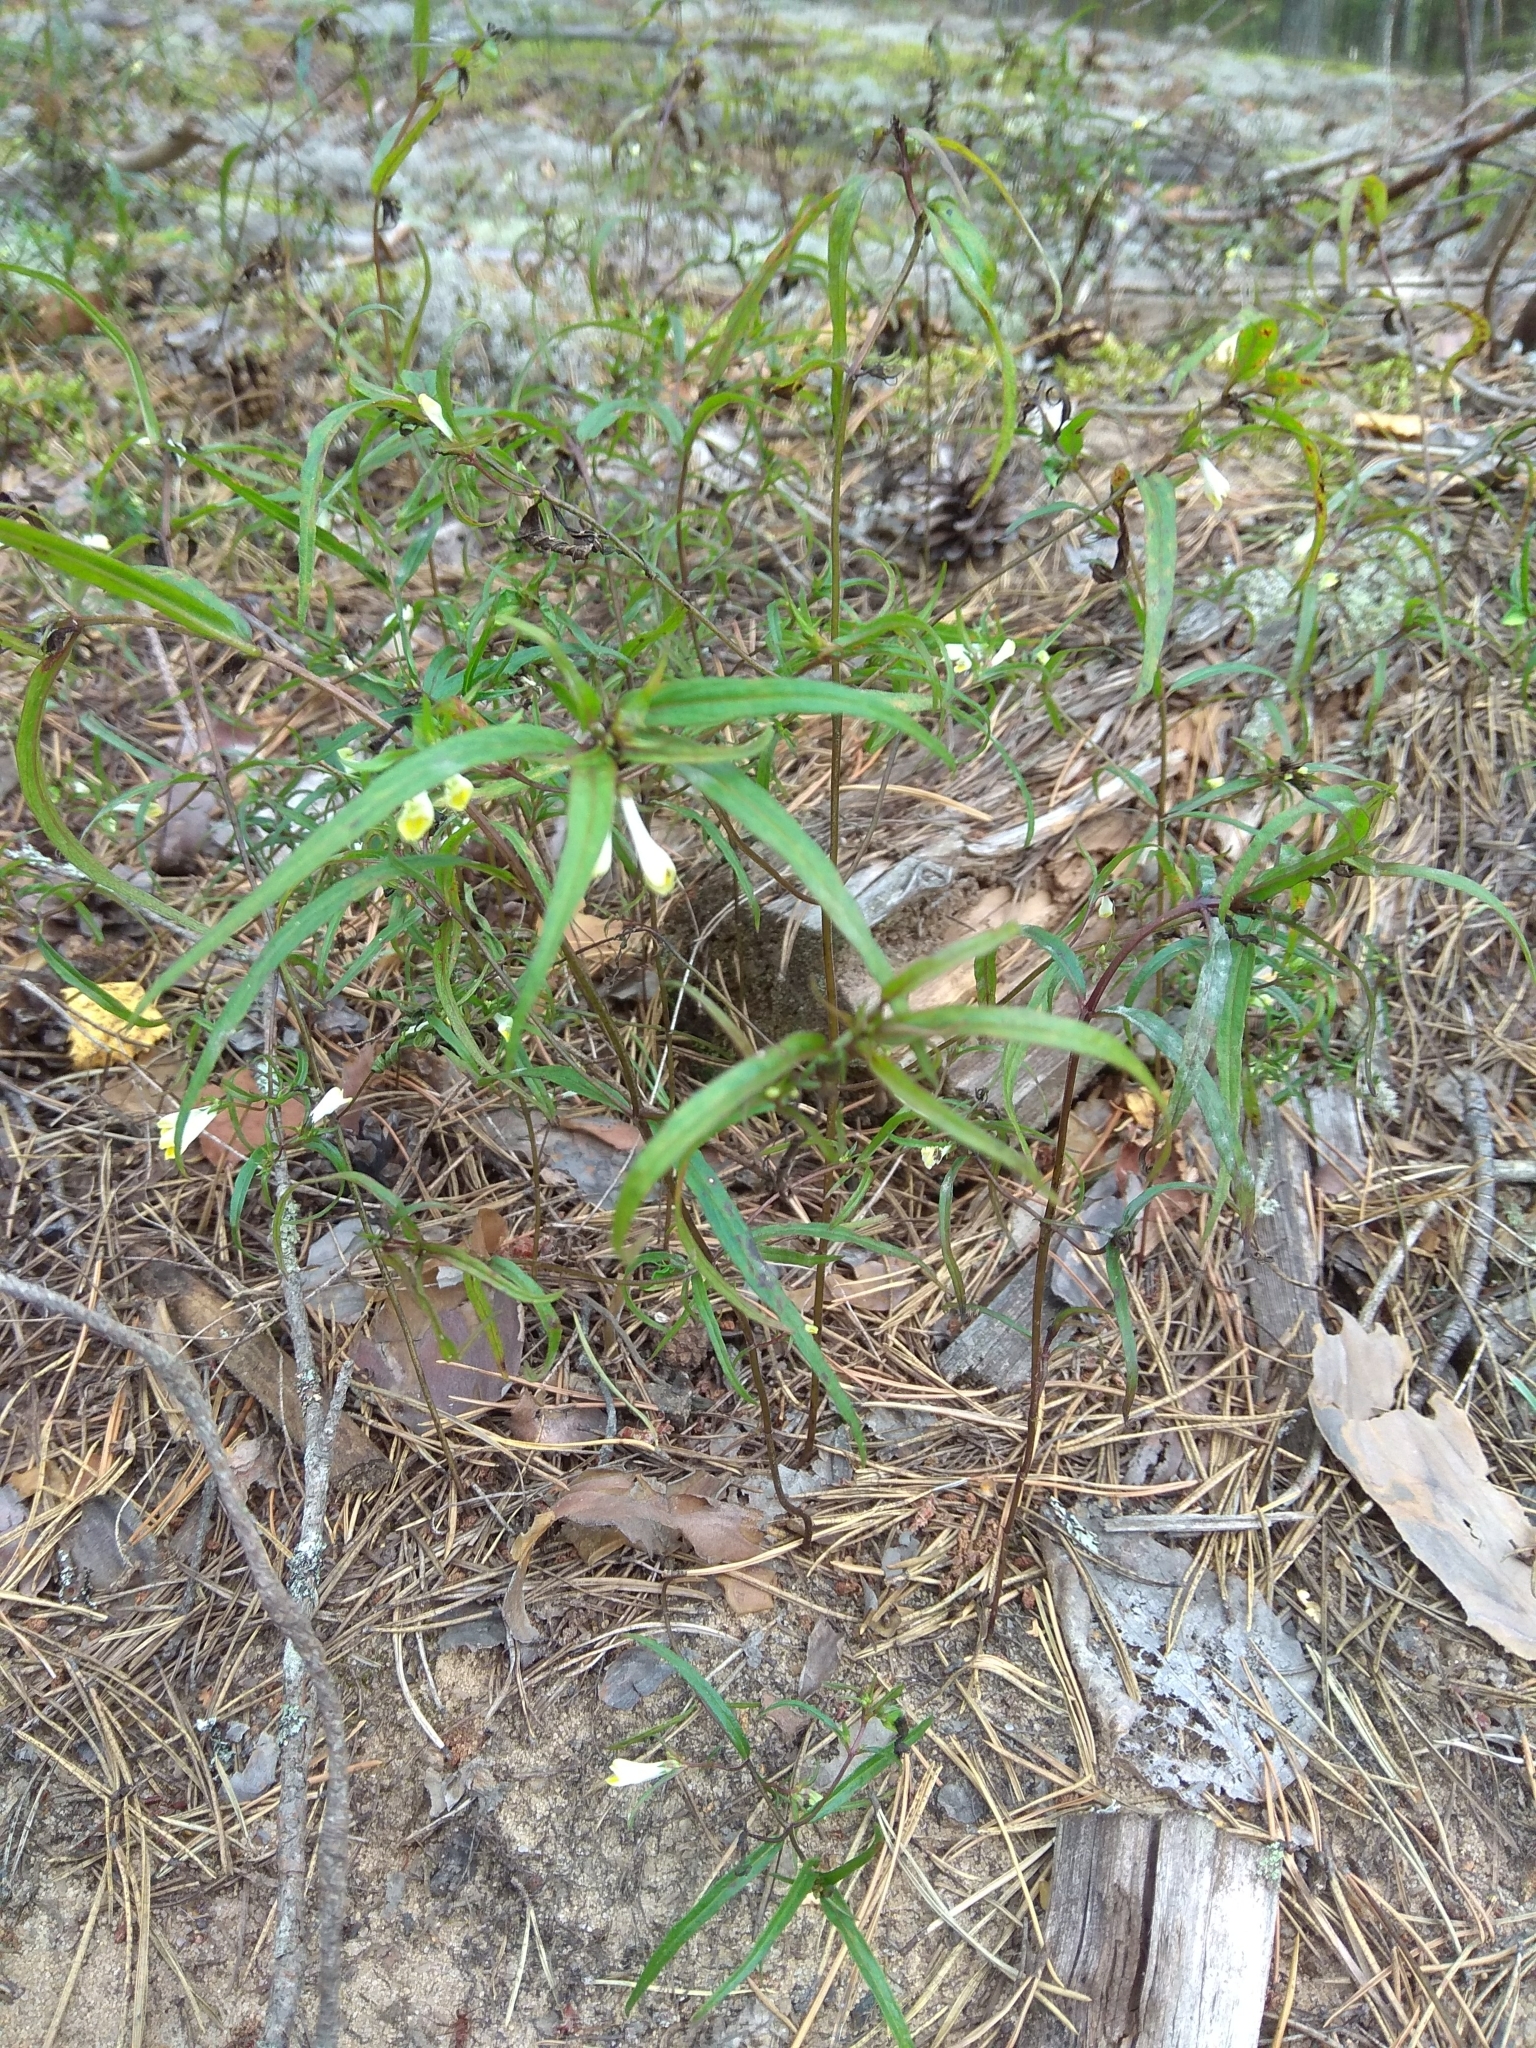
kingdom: Plantae
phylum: Tracheophyta
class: Magnoliopsida
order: Lamiales
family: Orobanchaceae
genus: Melampyrum
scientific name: Melampyrum pratense
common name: Common cow-wheat
